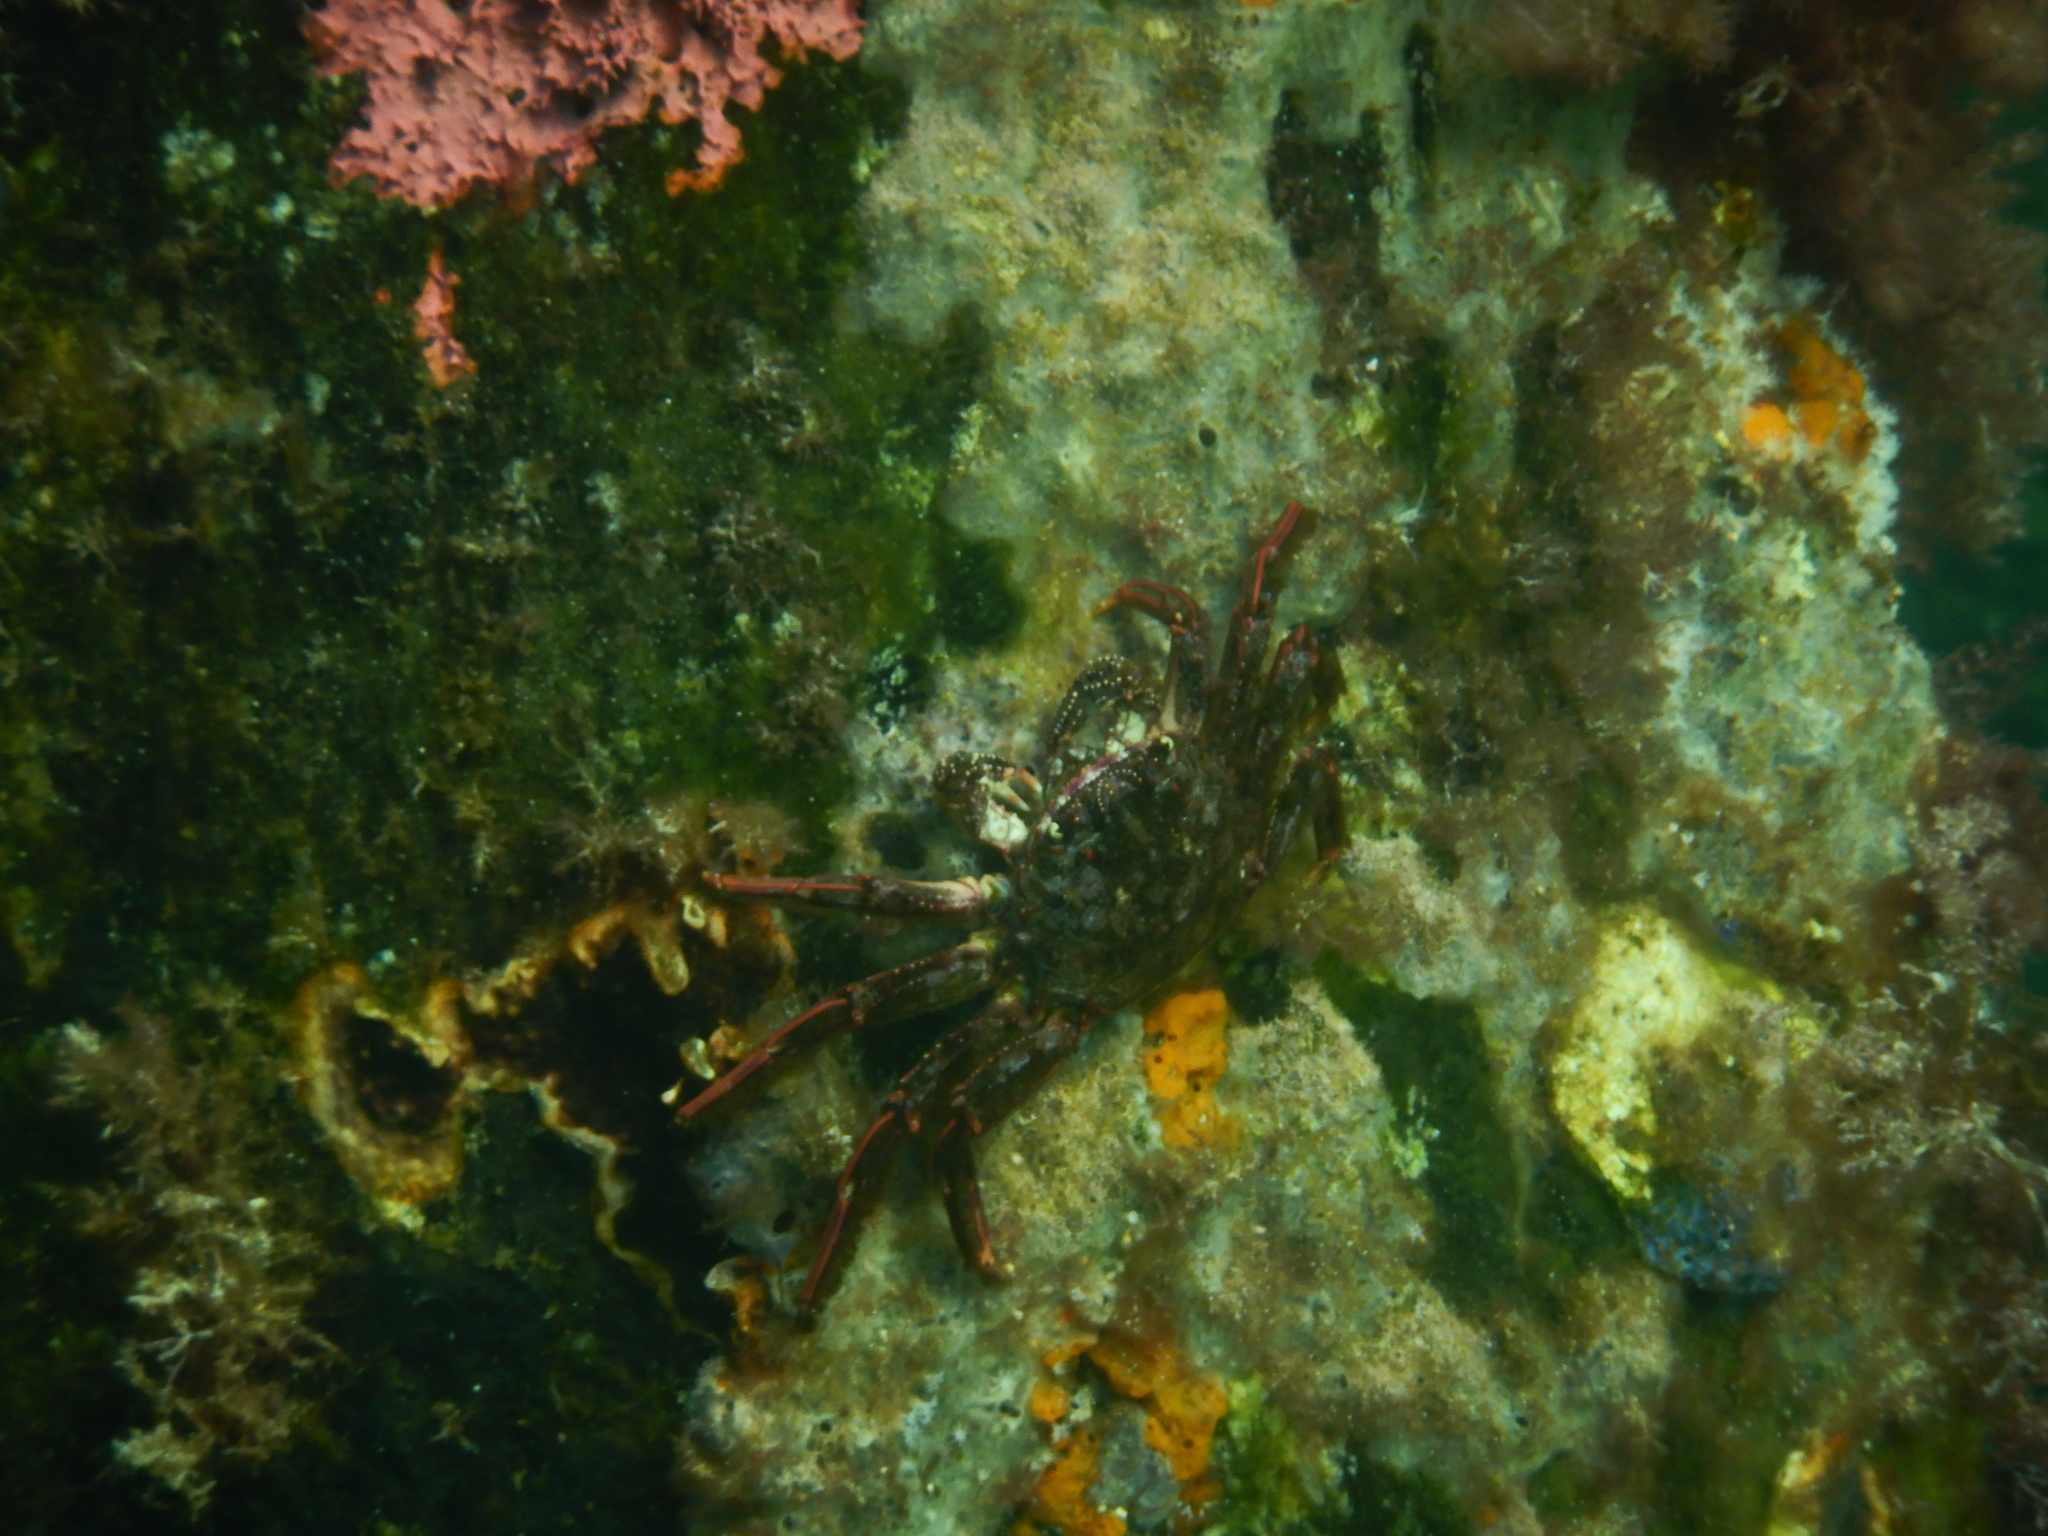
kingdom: Animalia
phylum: Arthropoda
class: Malacostraca
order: Decapoda
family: Plagusiidae
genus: Guinusia
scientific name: Guinusia chabrus
